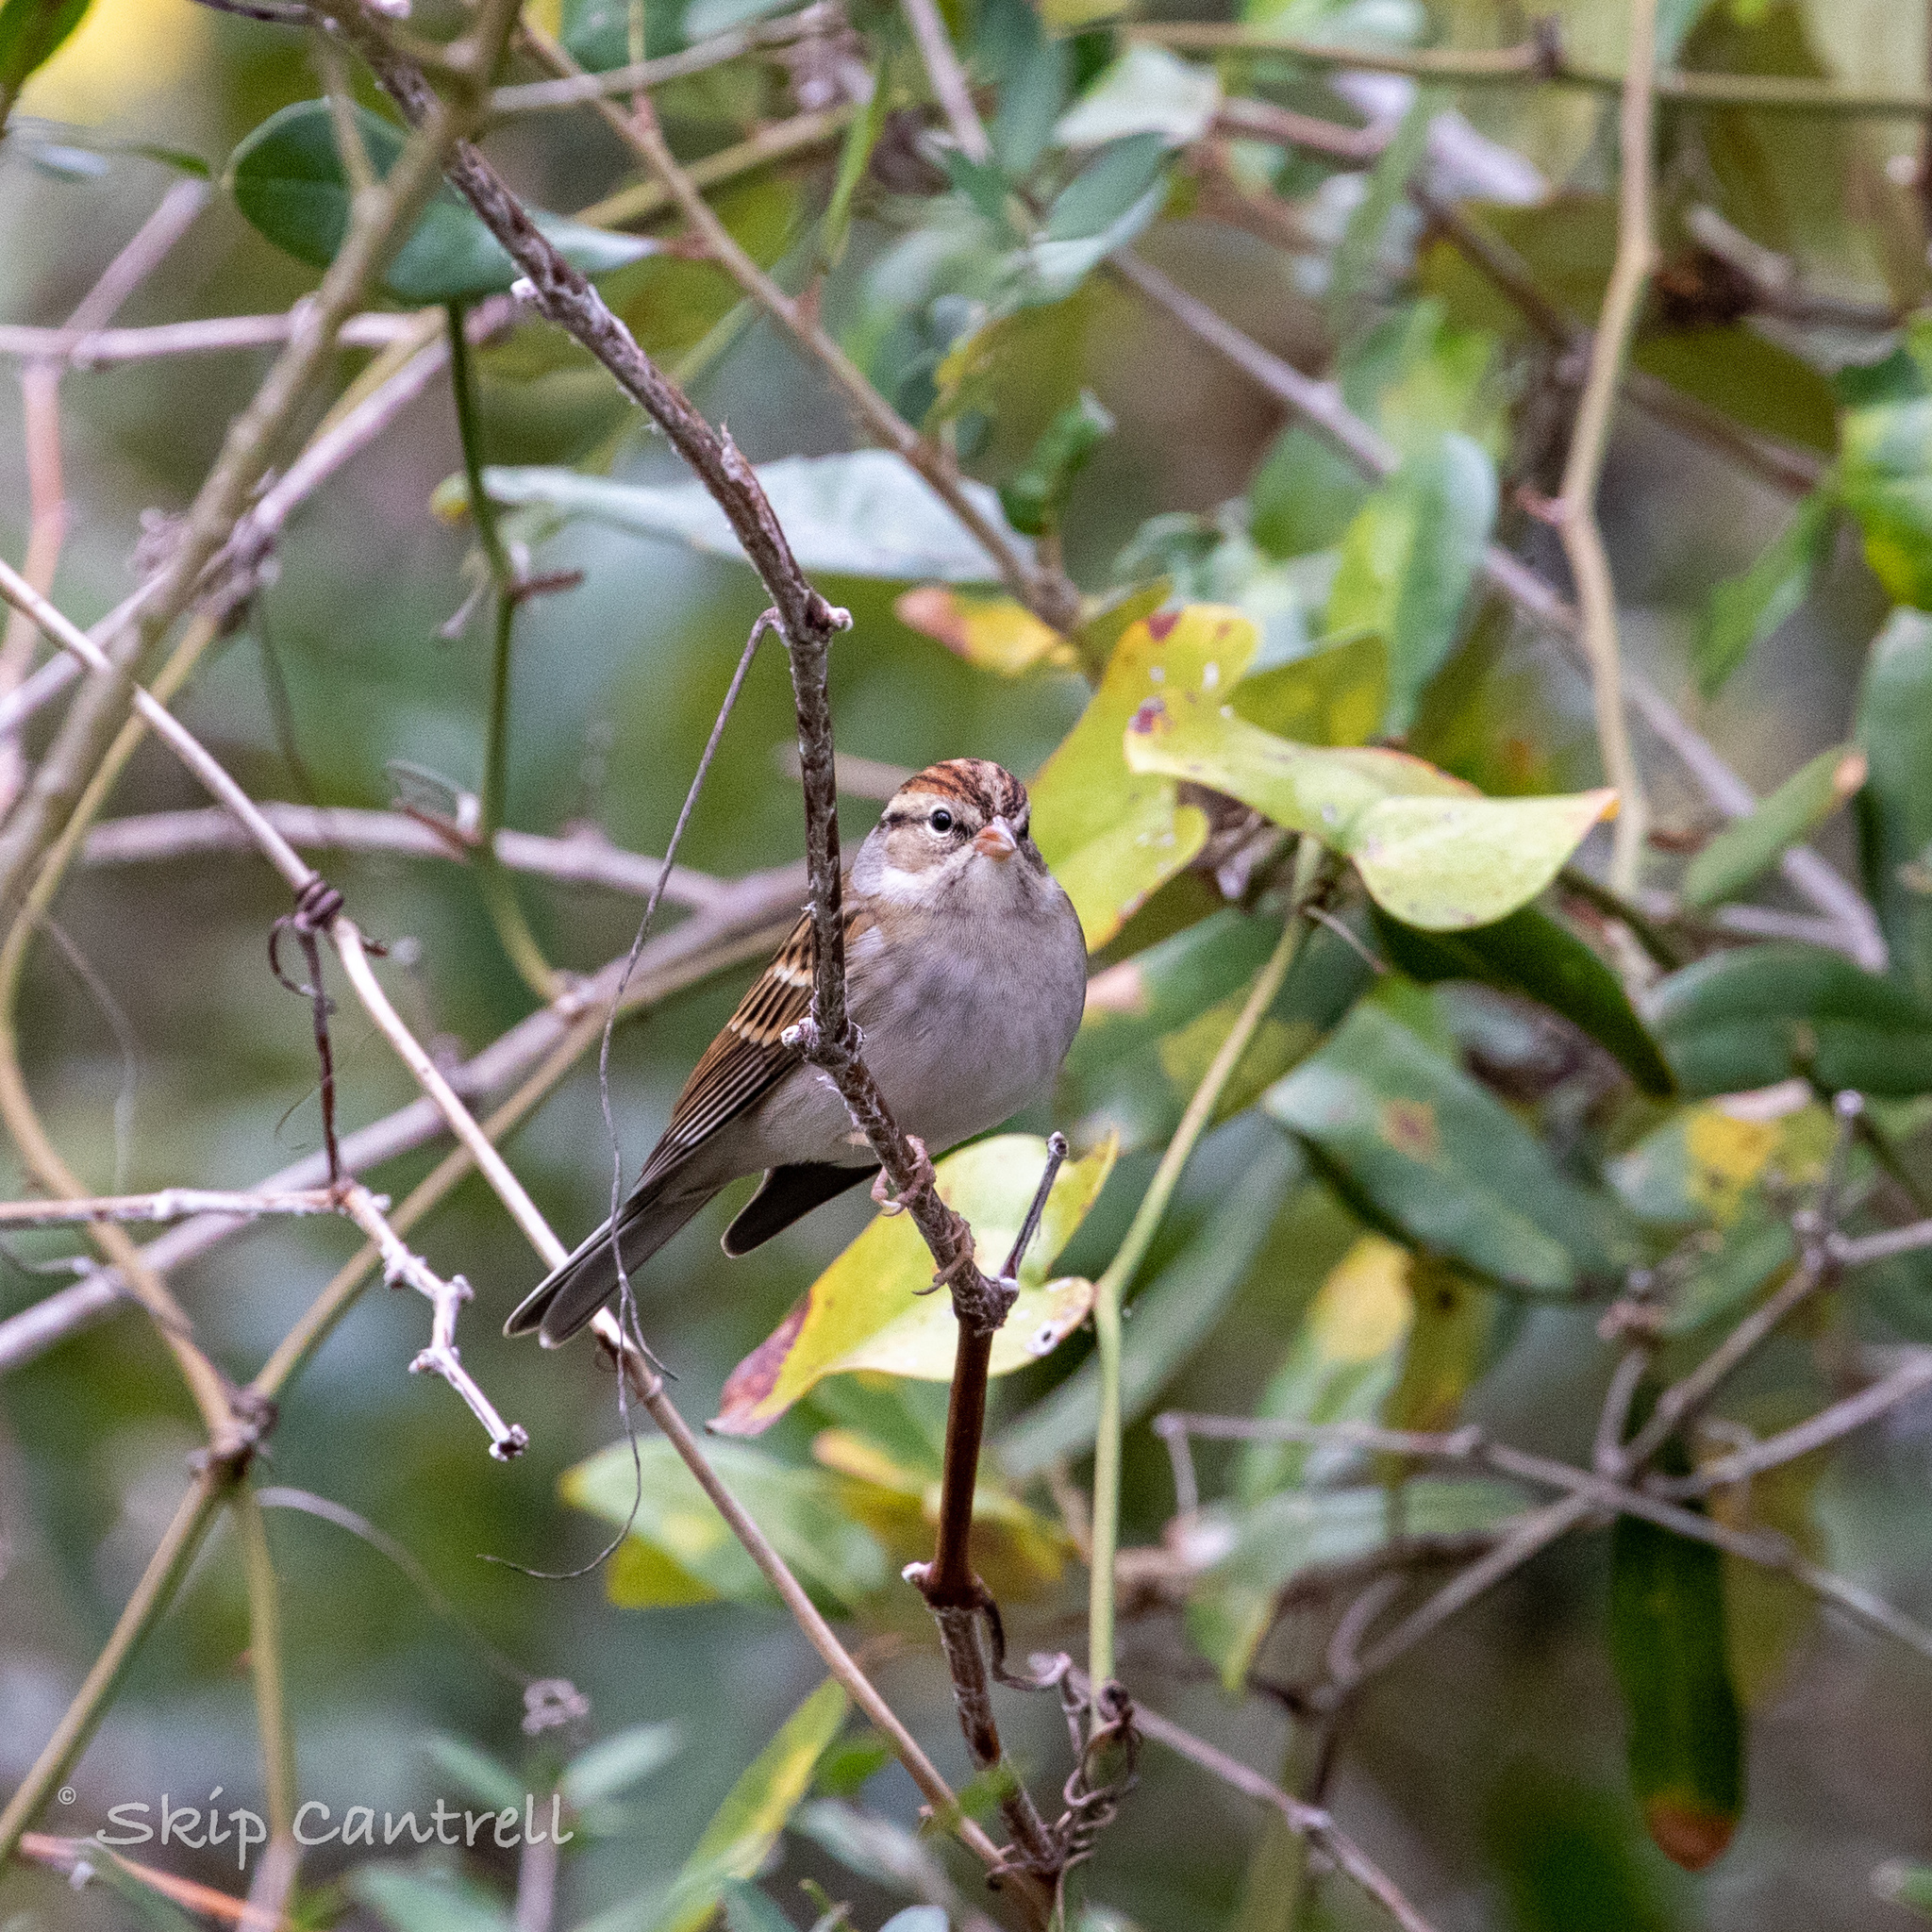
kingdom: Animalia
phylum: Chordata
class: Aves
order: Passeriformes
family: Passerellidae
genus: Spizella
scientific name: Spizella passerina
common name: Chipping sparrow
